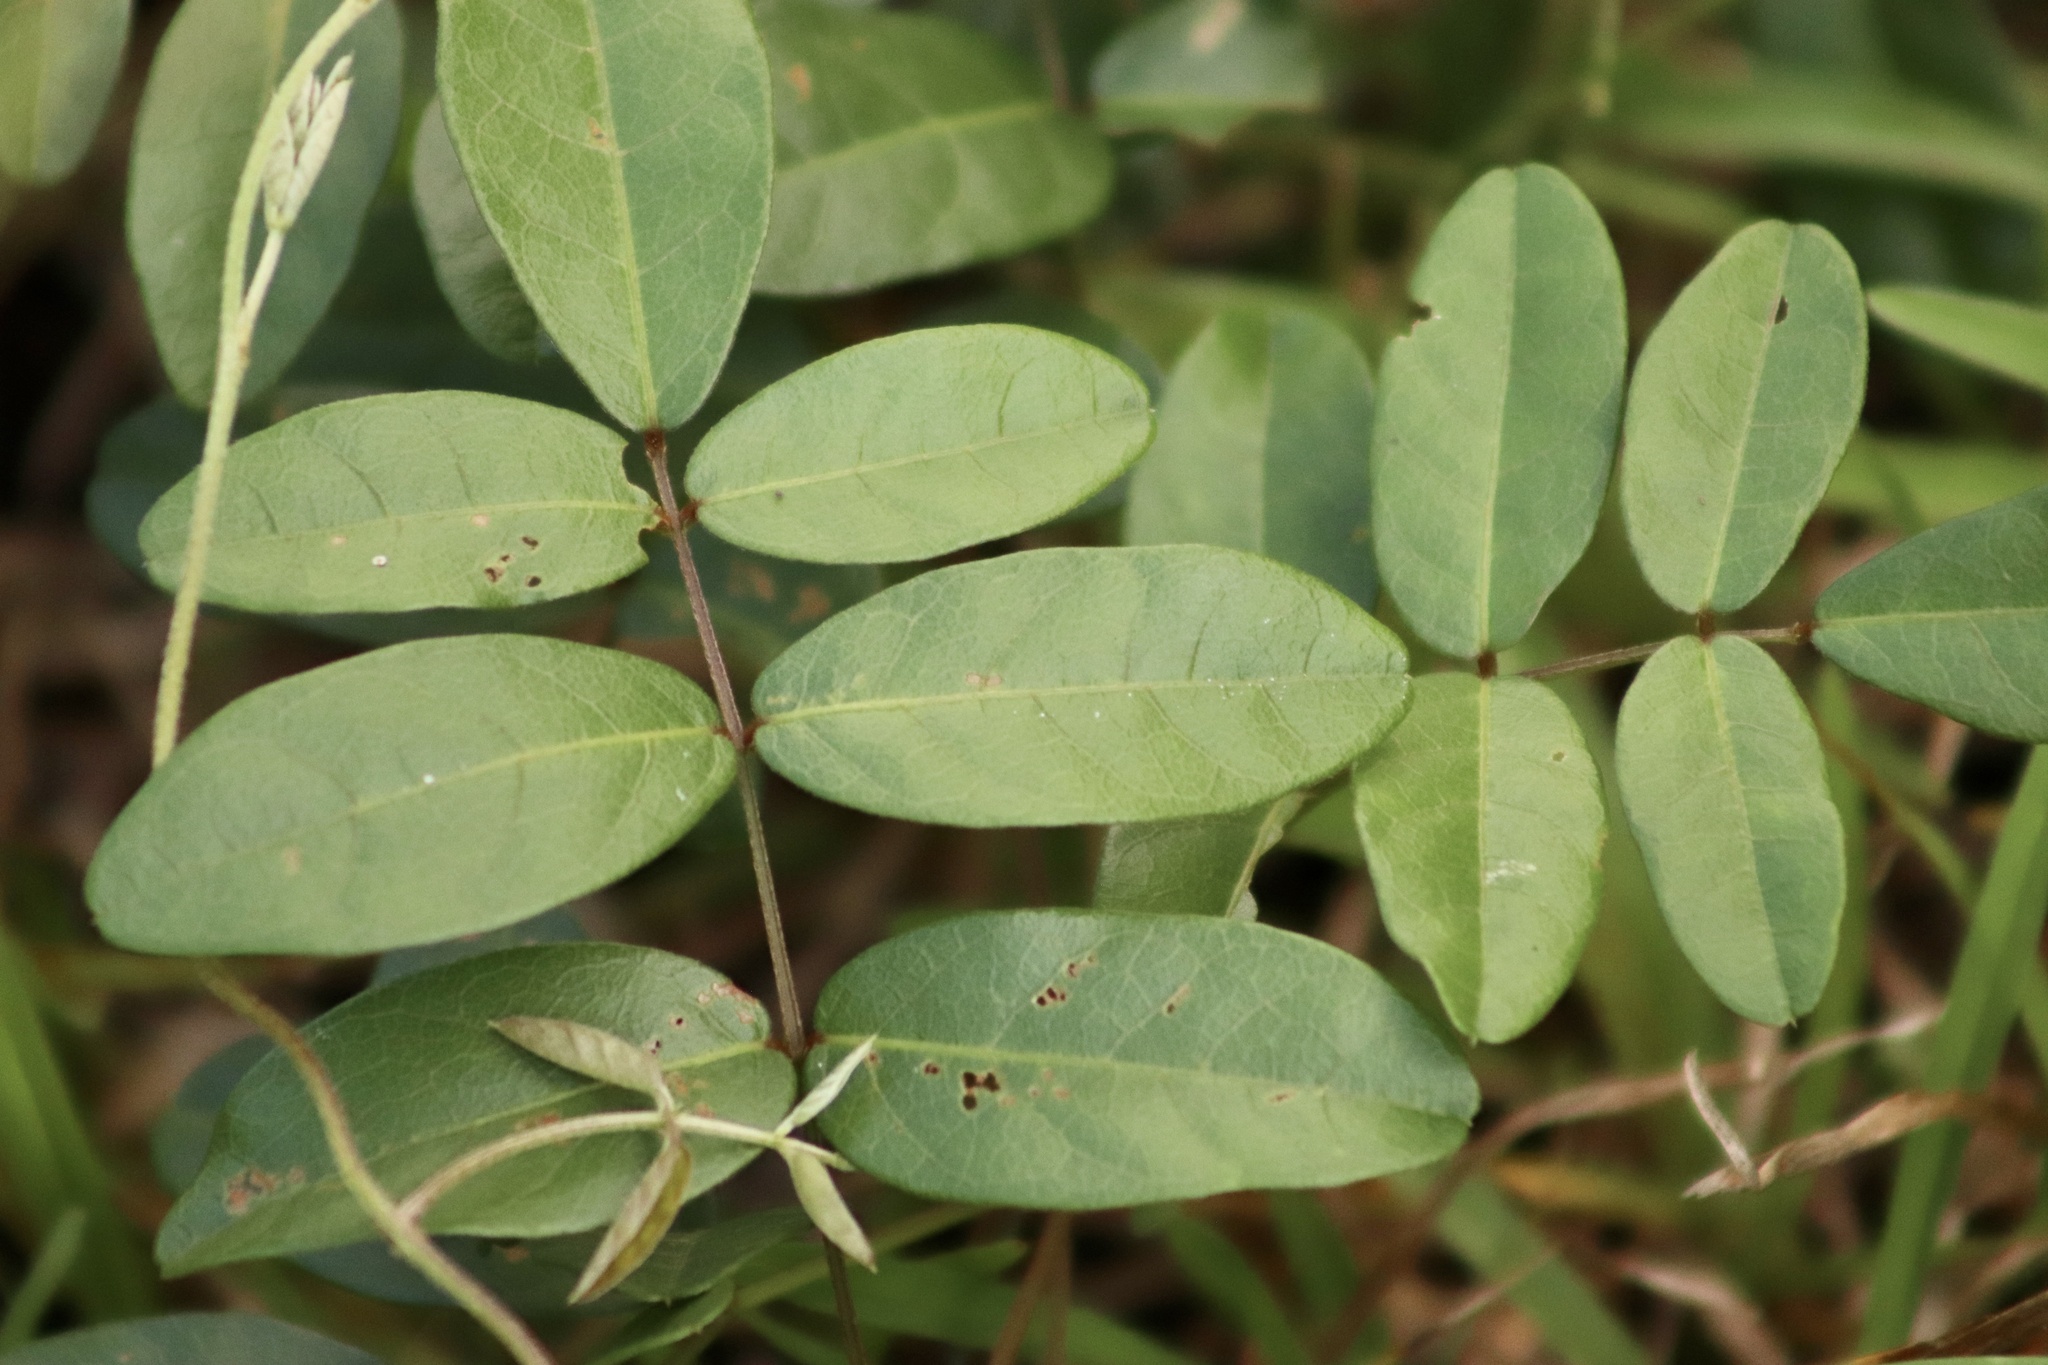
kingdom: Plantae
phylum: Tracheophyta
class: Magnoliopsida
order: Fabales
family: Fabaceae
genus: Galactia
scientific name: Galactia elliottii
